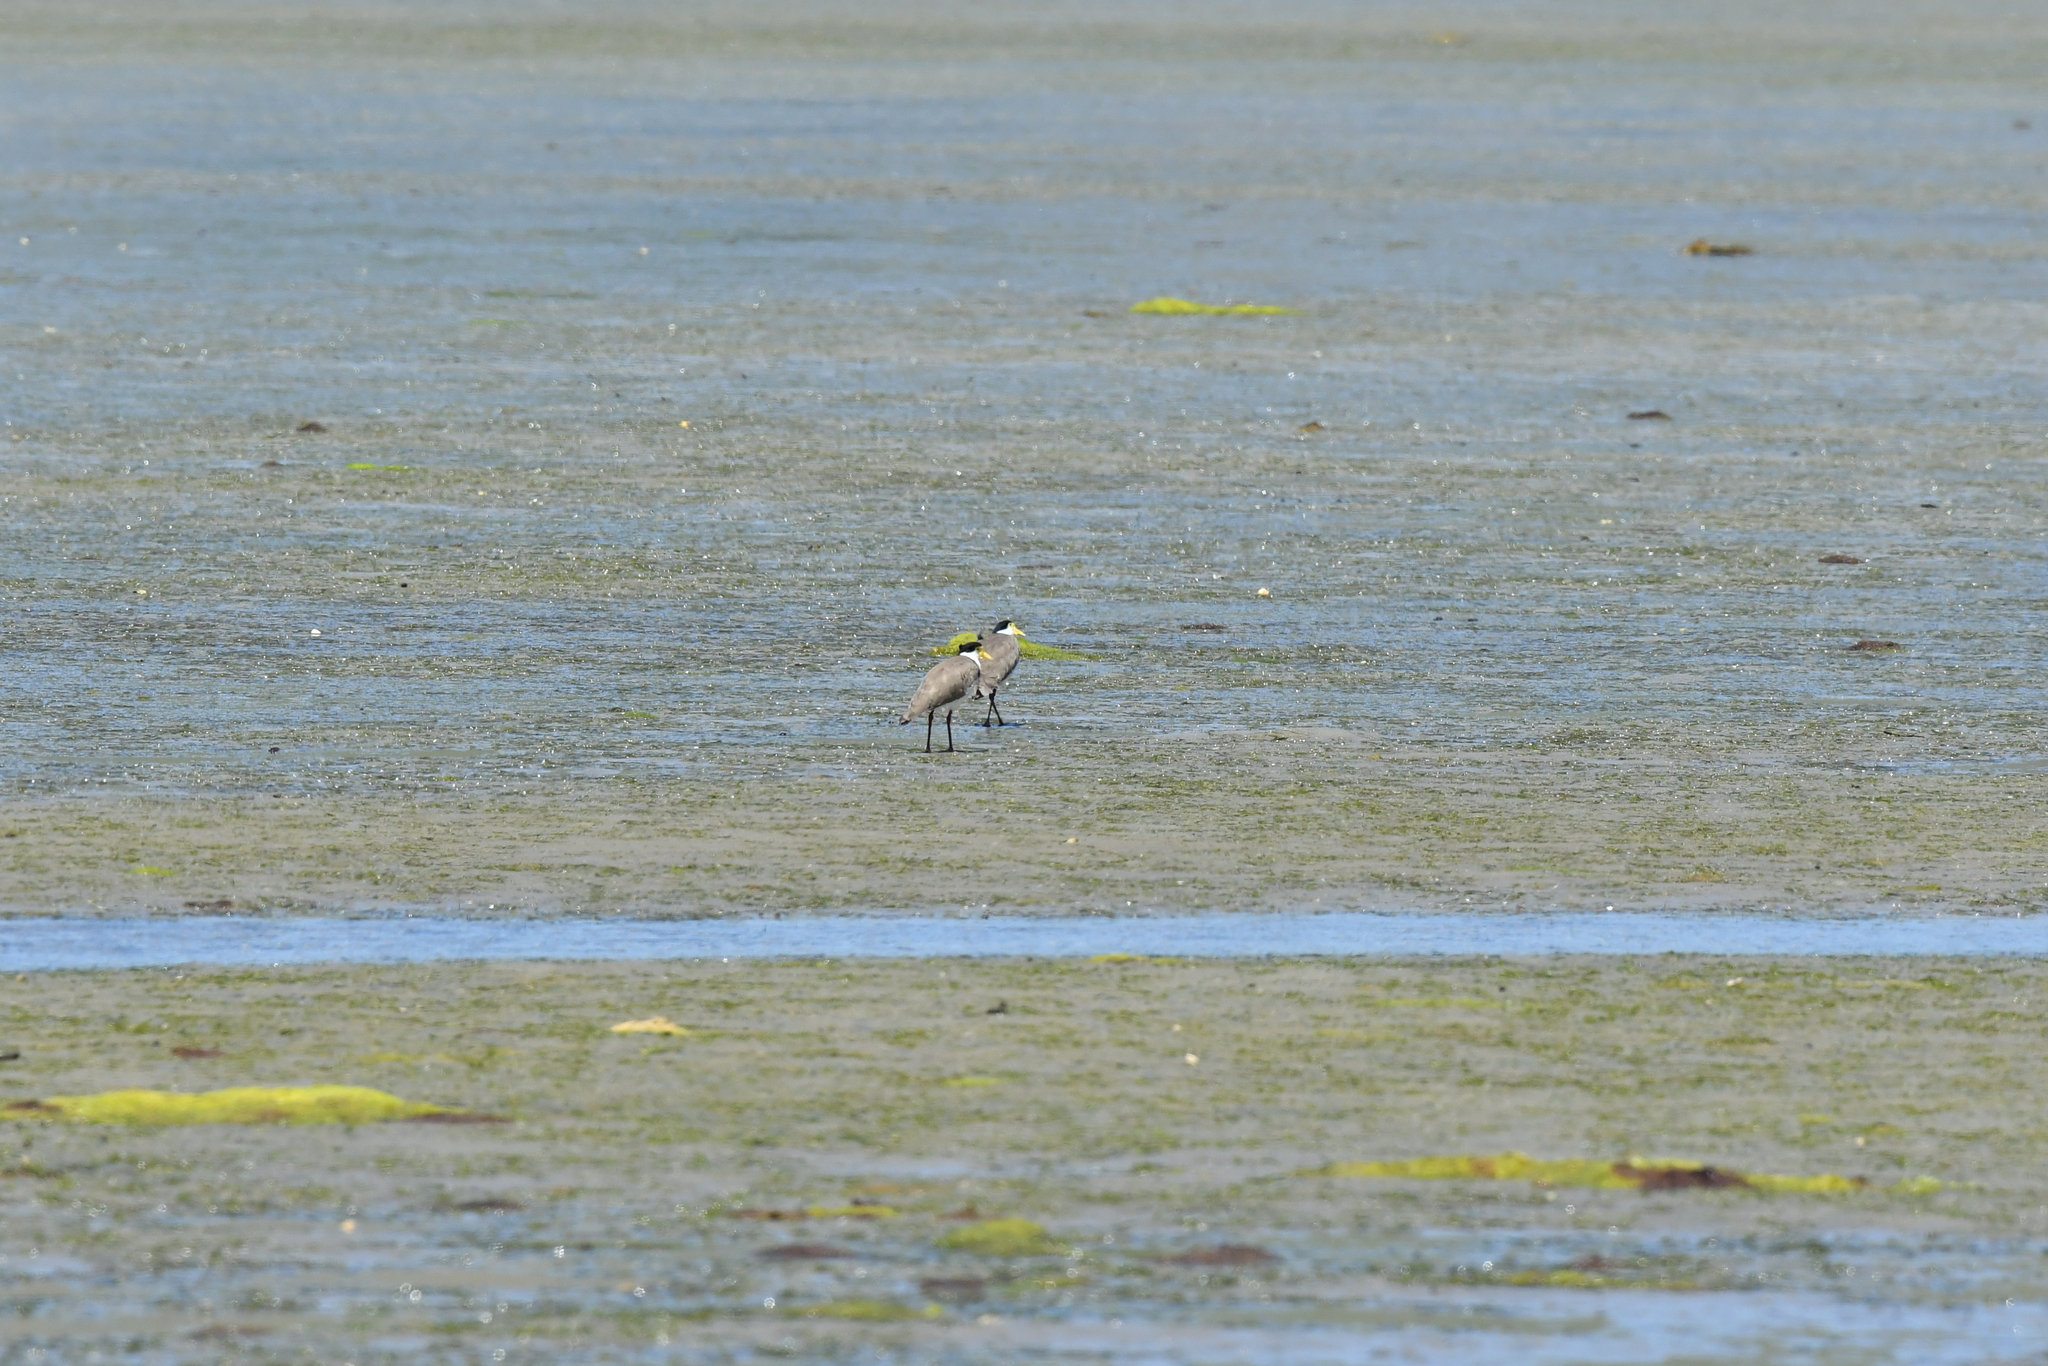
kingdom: Animalia
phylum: Chordata
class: Aves
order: Charadriiformes
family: Charadriidae
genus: Vanellus
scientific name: Vanellus miles
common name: Masked lapwing
